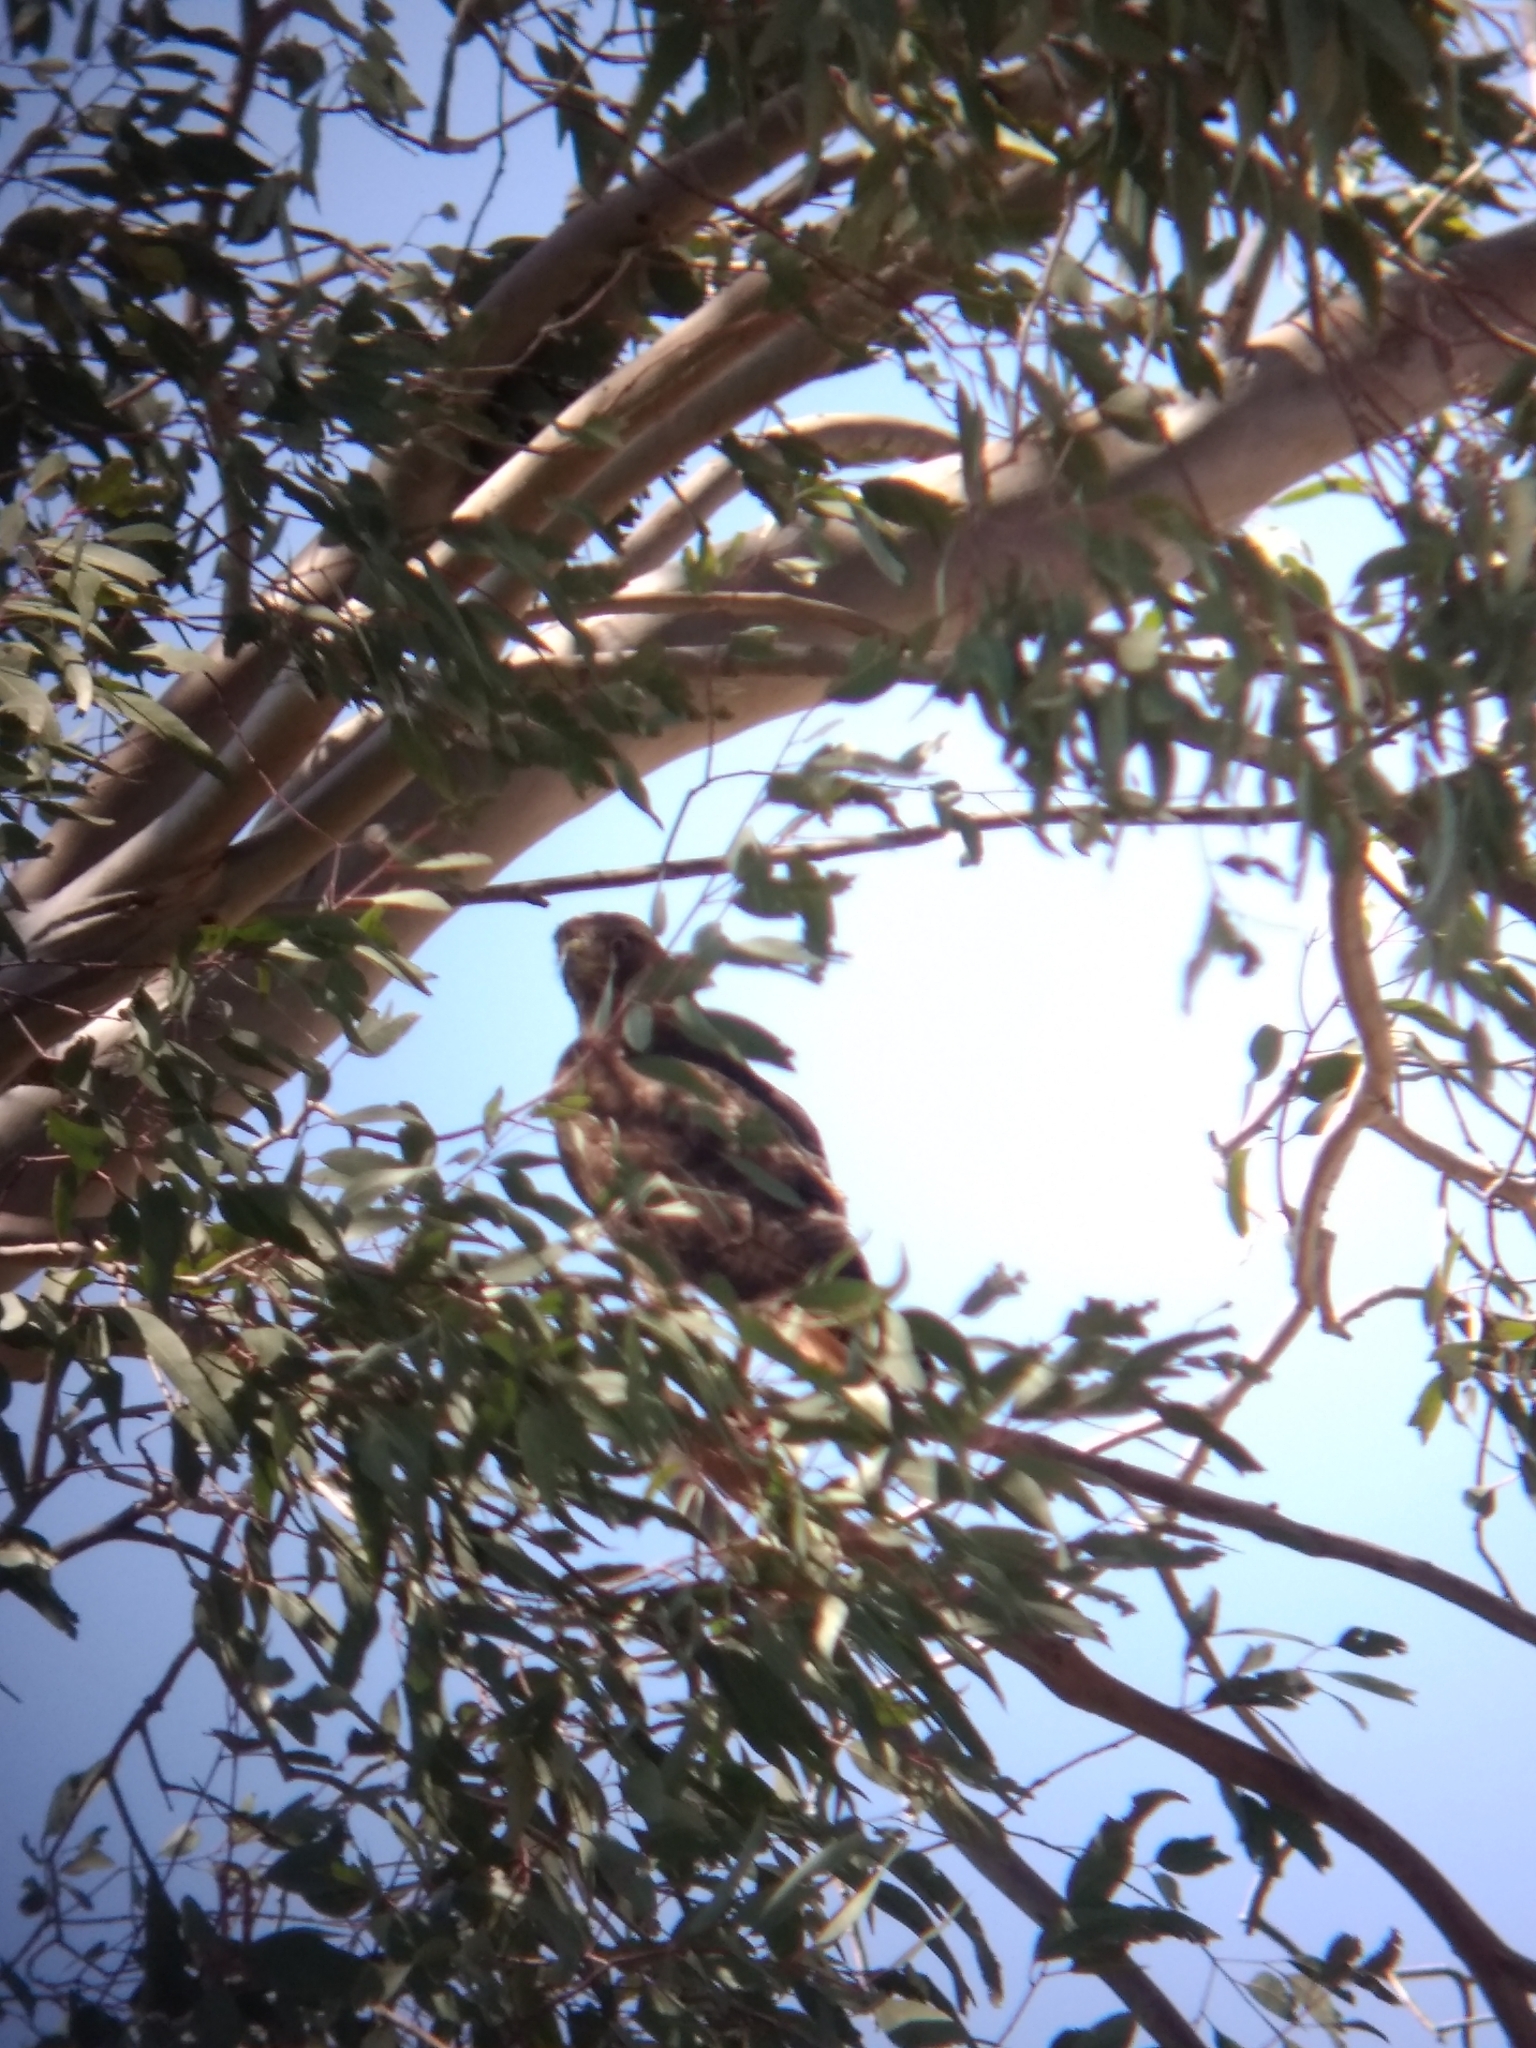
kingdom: Animalia
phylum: Chordata
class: Aves
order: Accipitriformes
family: Accipitridae
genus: Buteo
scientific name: Buteo jamaicensis
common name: Red-tailed hawk
